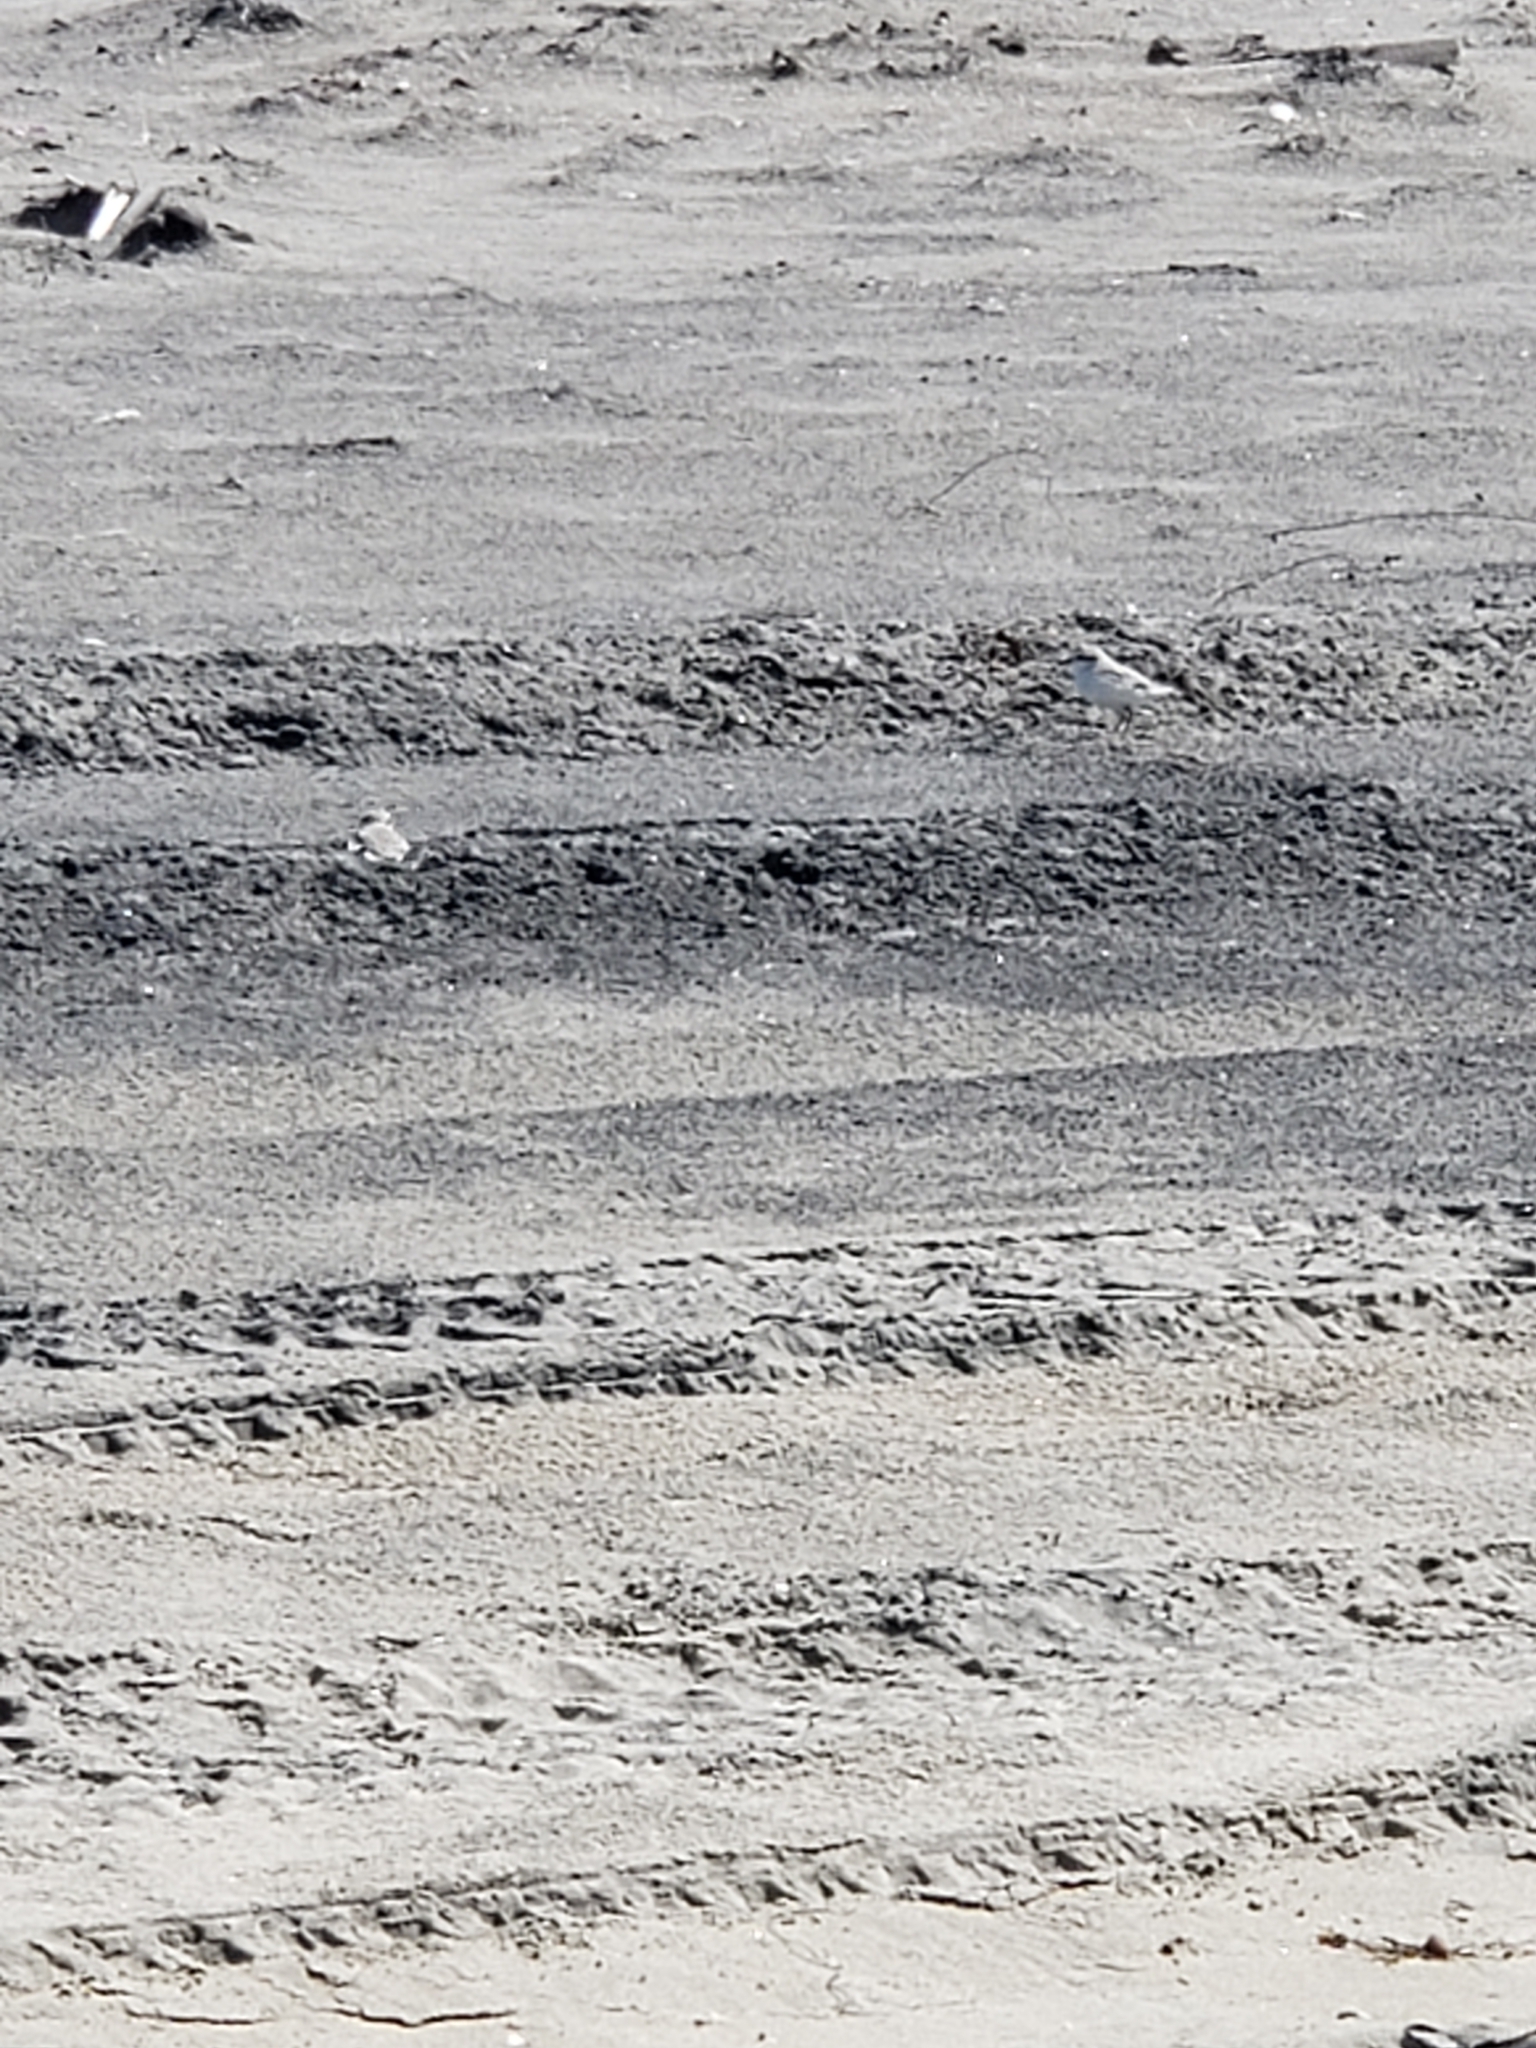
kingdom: Animalia
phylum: Chordata
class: Aves
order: Charadriiformes
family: Charadriidae
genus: Anarhynchus
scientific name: Anarhynchus
